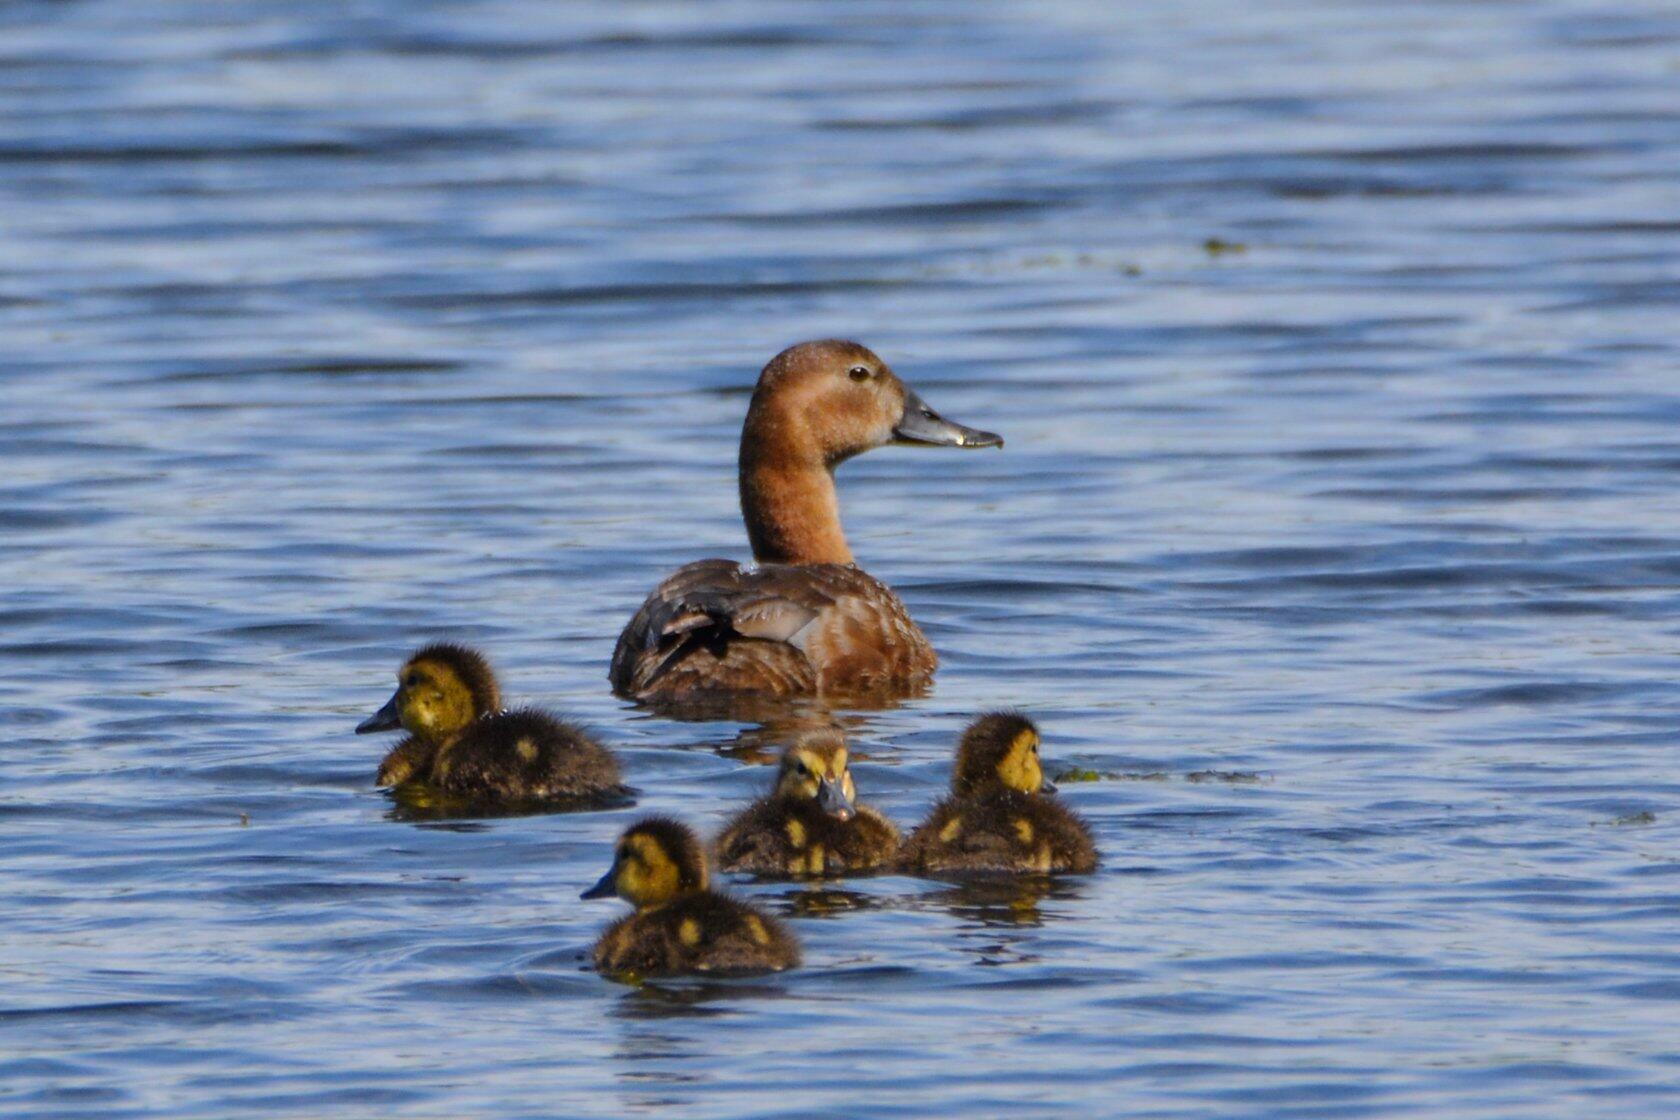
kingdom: Animalia
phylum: Chordata
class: Aves
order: Anseriformes
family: Anatidae
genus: Aythya
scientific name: Aythya ferina
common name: Common pochard
